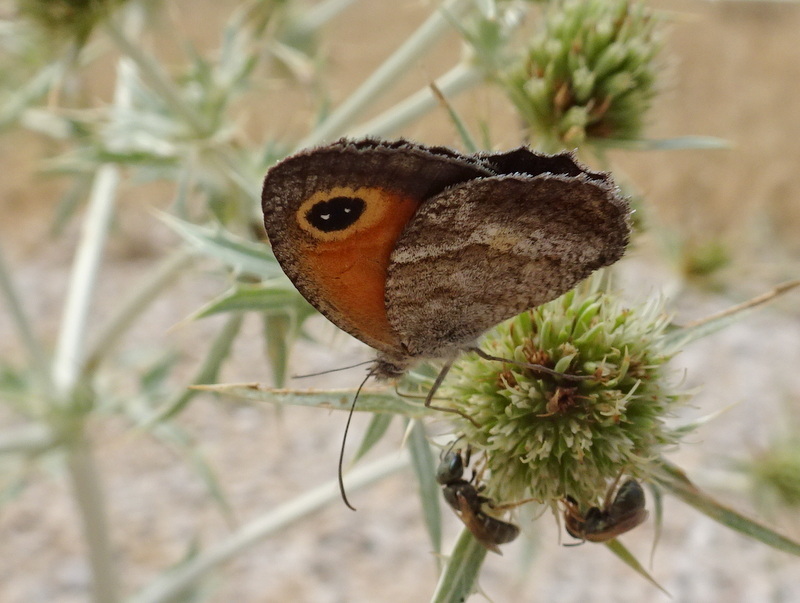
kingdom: Animalia
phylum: Arthropoda
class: Insecta
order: Lepidoptera
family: Nymphalidae
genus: Pyronia
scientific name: Pyronia cecilia
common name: Southern gatekeeper
